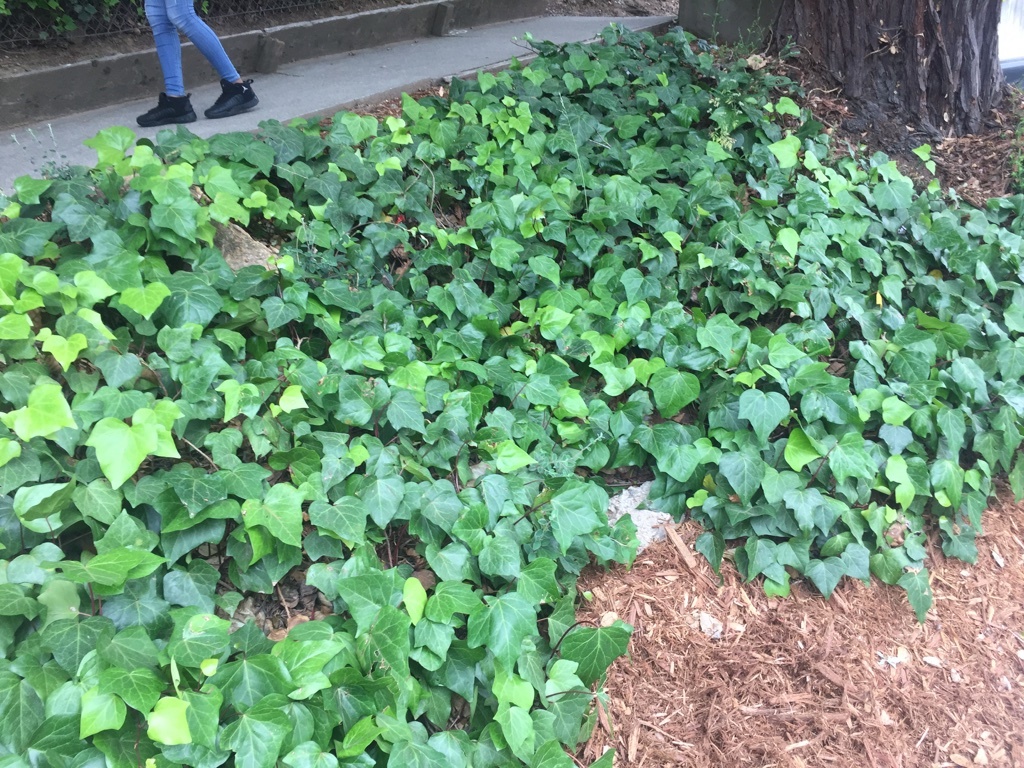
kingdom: Plantae
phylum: Tracheophyta
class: Magnoliopsida
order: Apiales
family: Araliaceae
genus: Hedera
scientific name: Hedera helix
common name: Ivy
